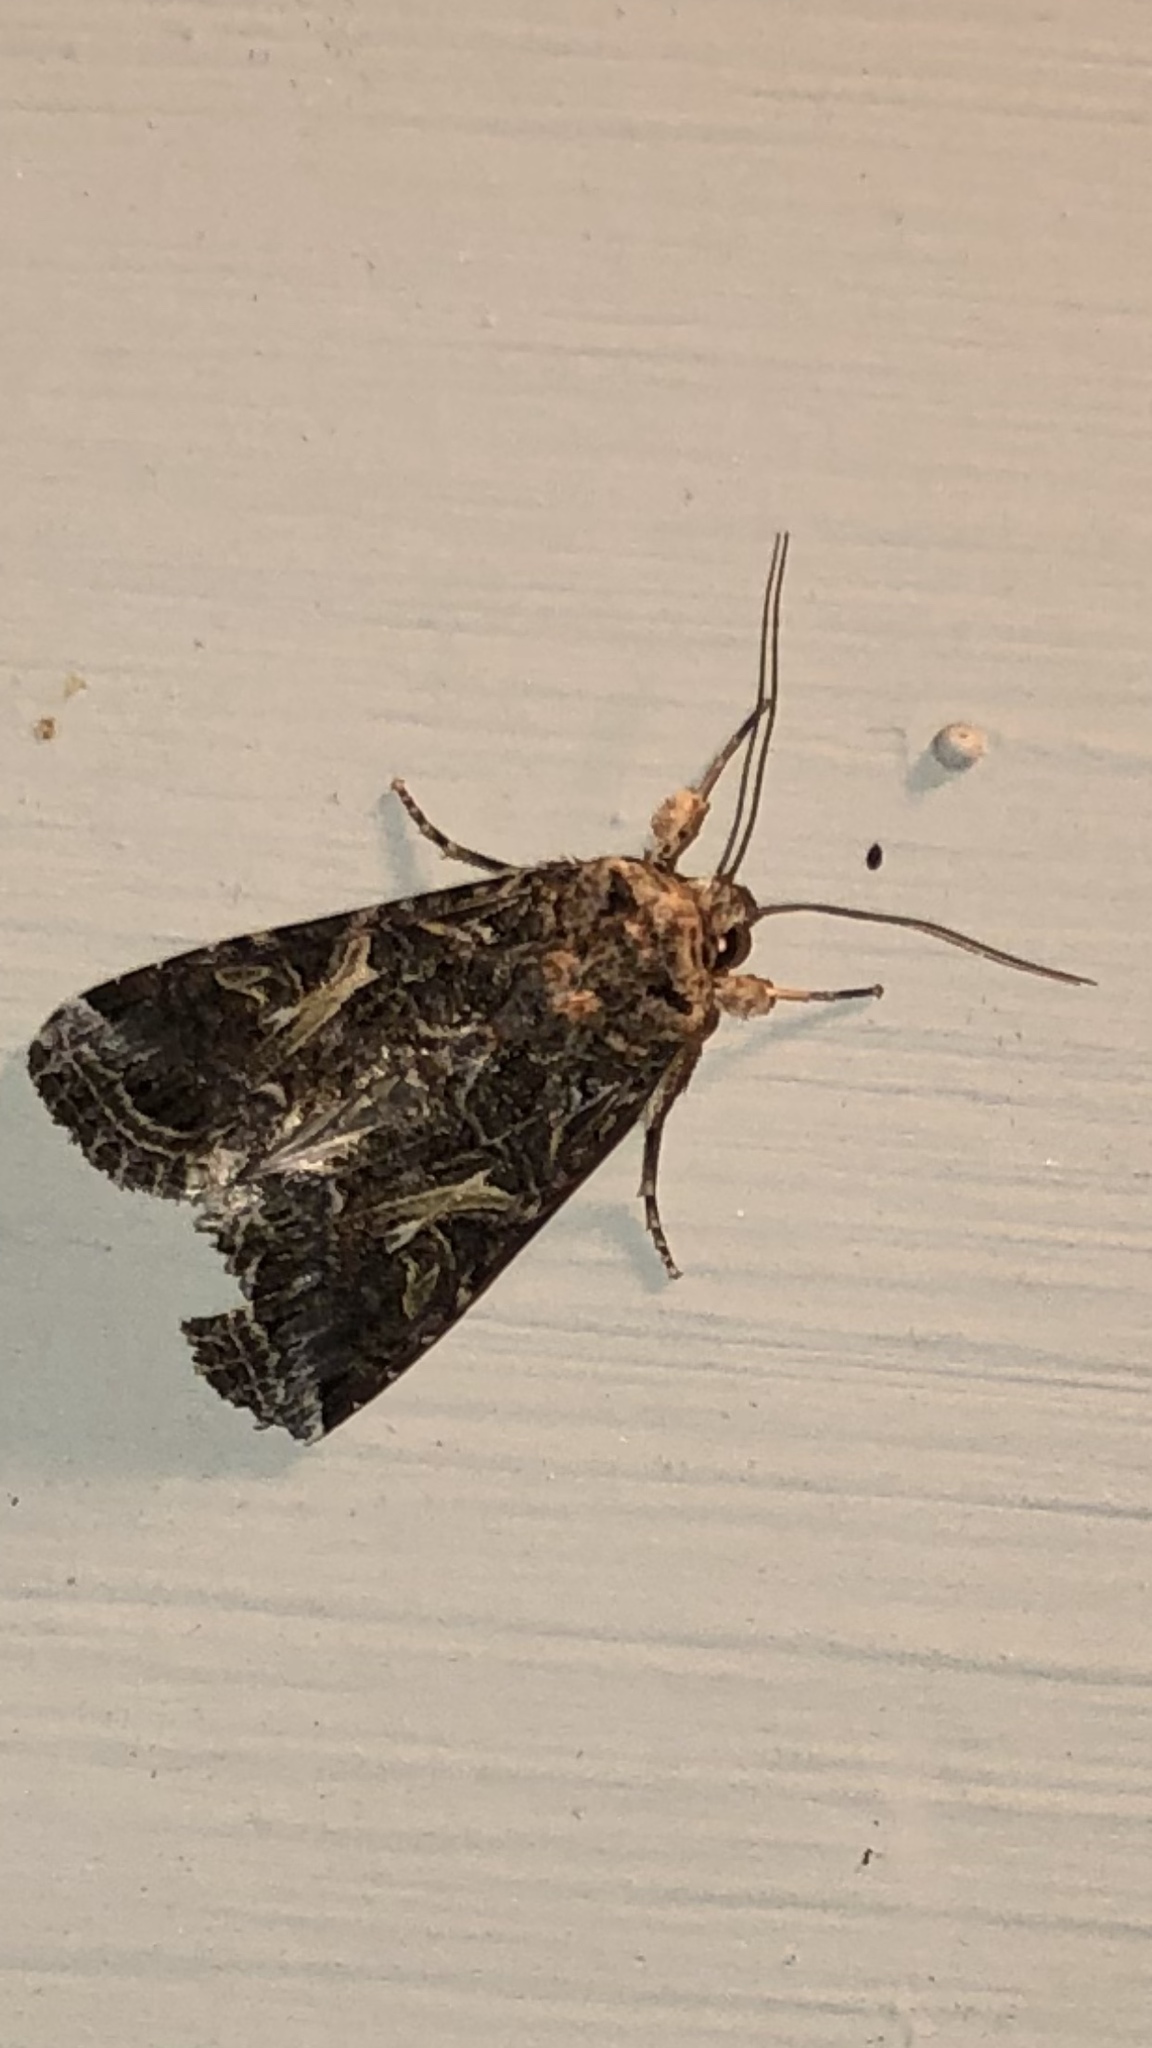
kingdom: Animalia
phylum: Arthropoda
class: Insecta
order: Lepidoptera
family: Noctuidae
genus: Spodoptera
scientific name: Spodoptera ornithogalli
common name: Yellow-striped armyworm
